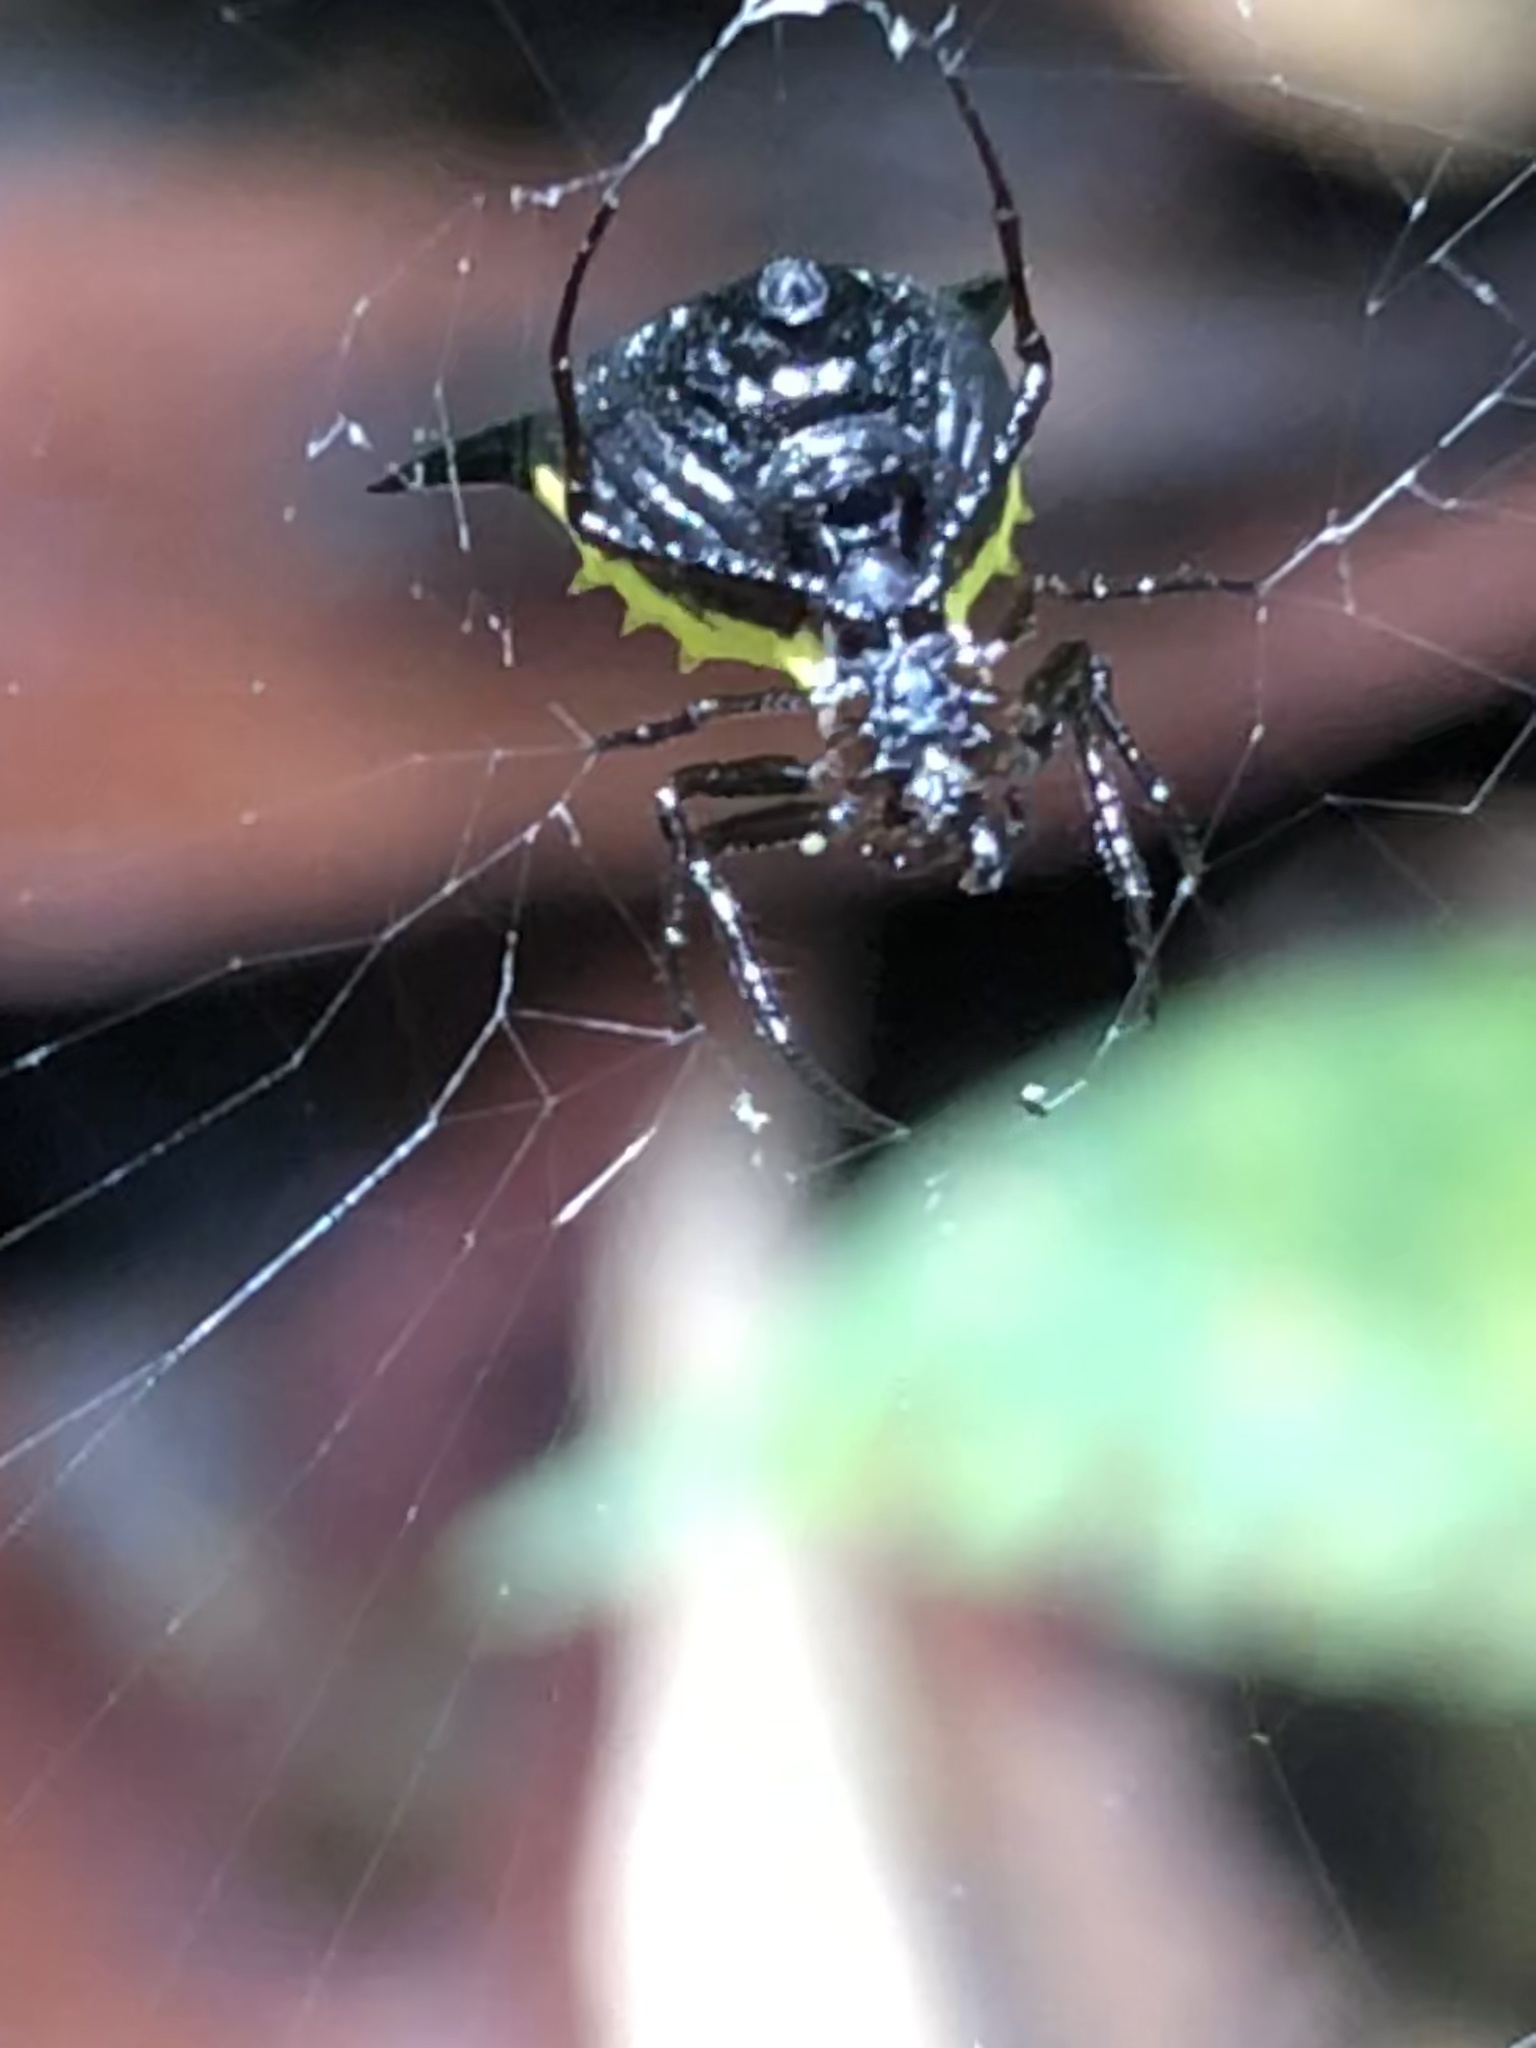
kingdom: Animalia
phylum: Arthropoda
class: Arachnida
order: Araneae
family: Araneidae
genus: Micrathena
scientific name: Micrathena pungens
